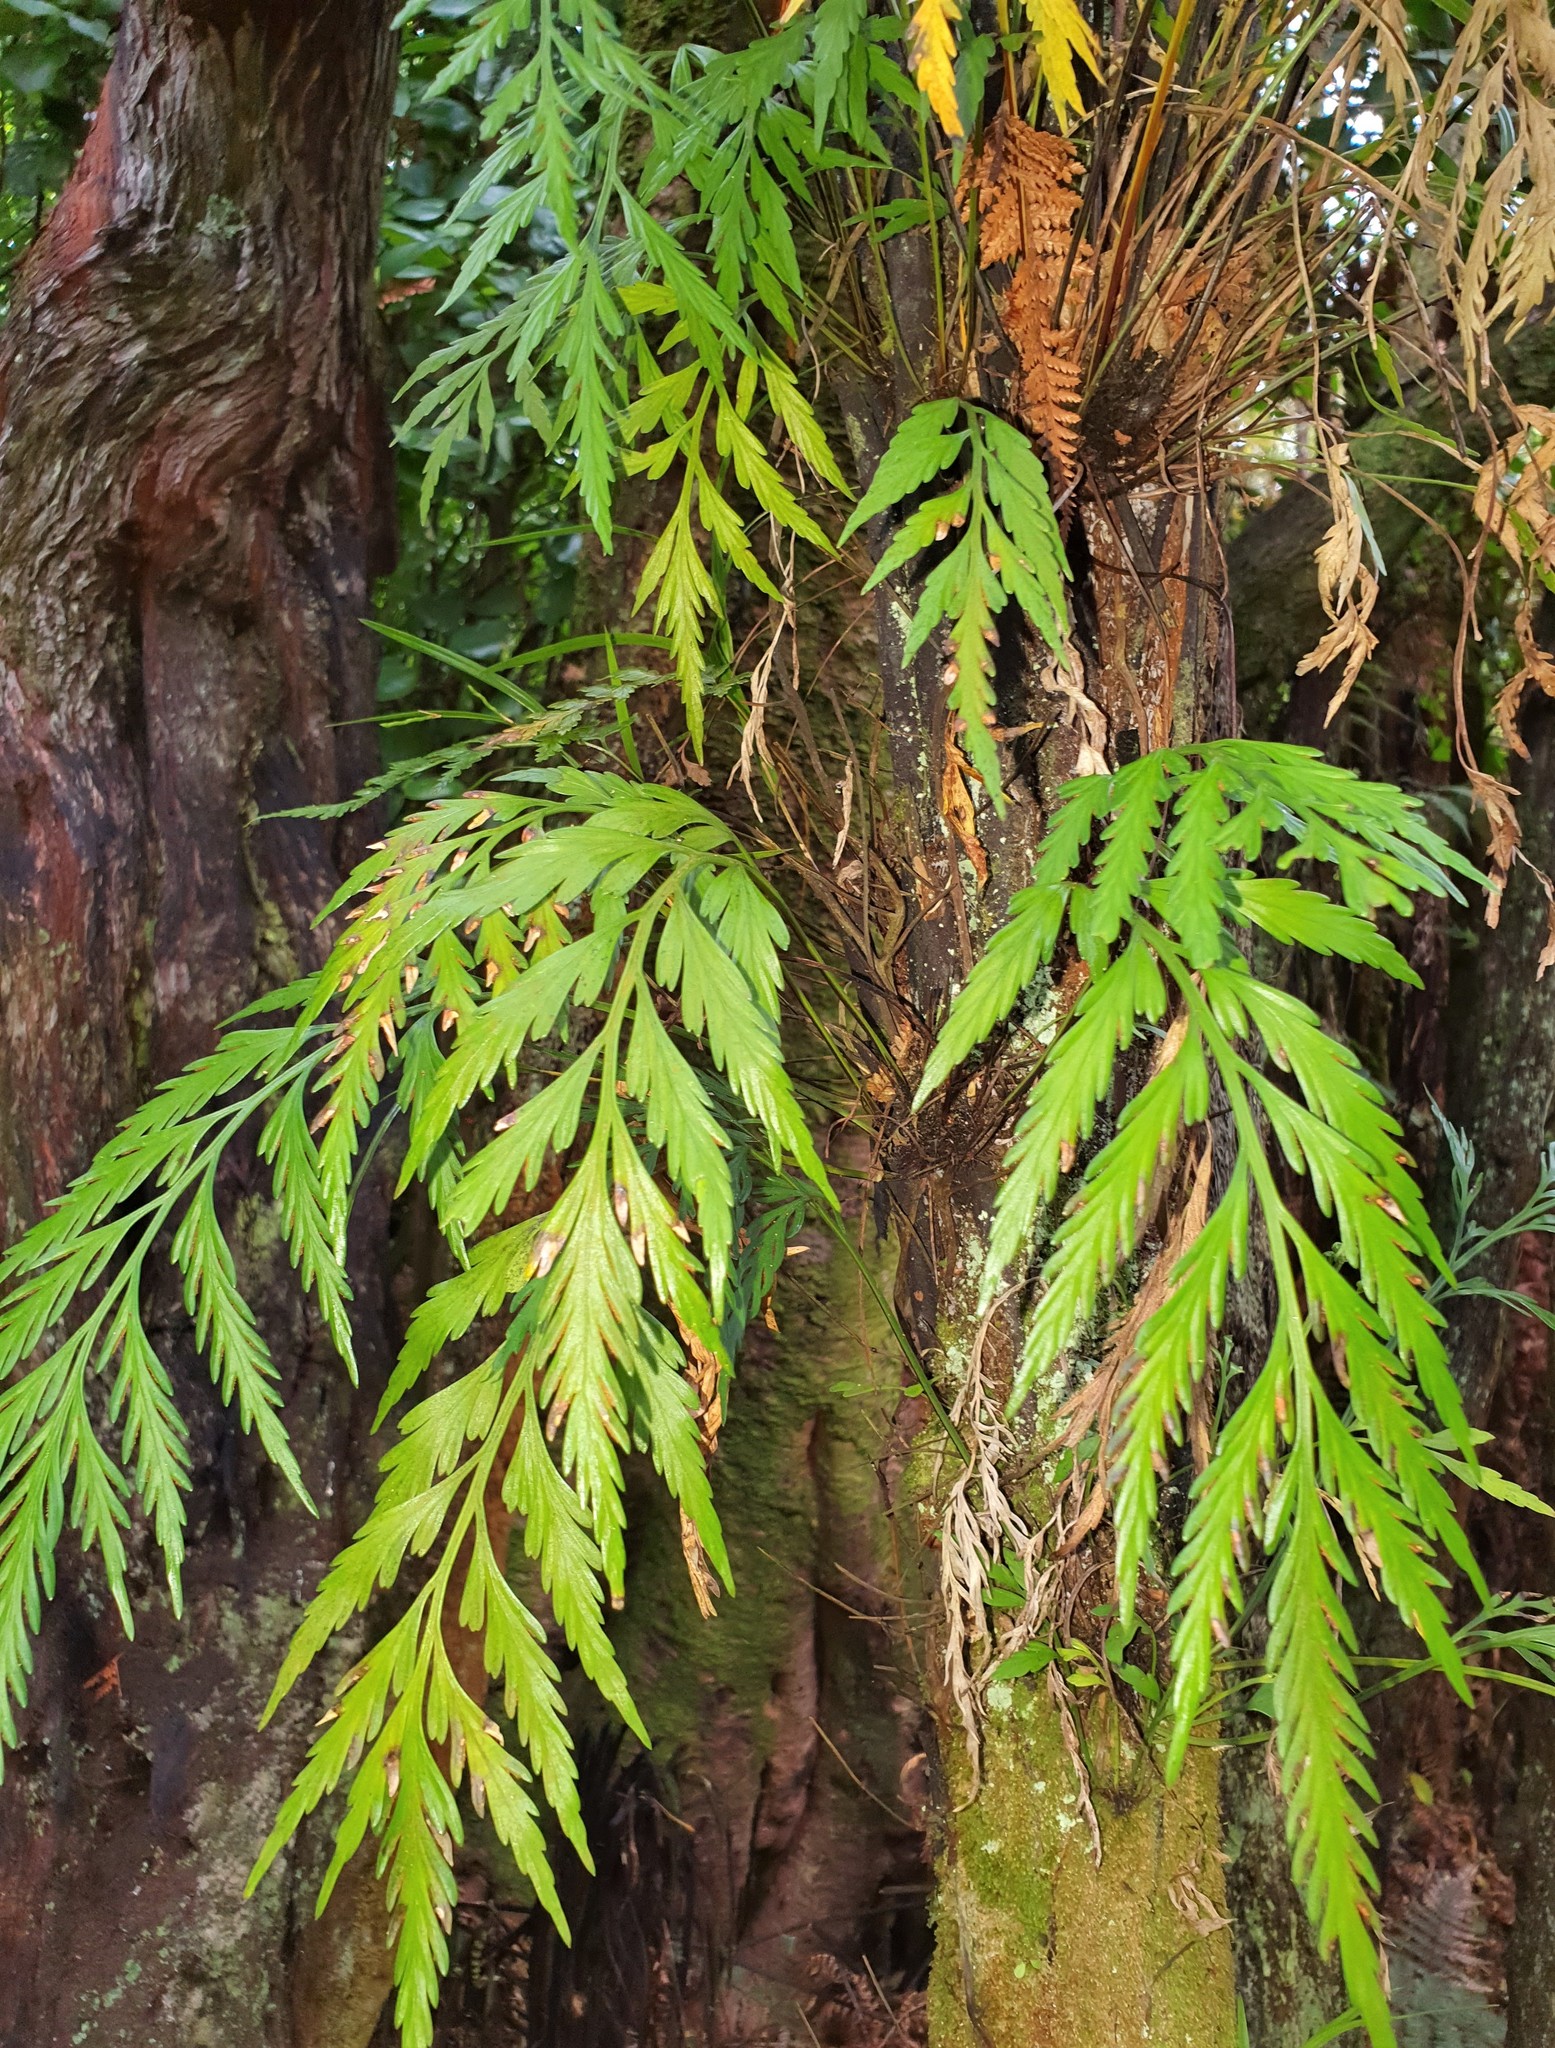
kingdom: Plantae
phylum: Tracheophyta
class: Polypodiopsida
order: Polypodiales
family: Aspleniaceae
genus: Asplenium
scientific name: Asplenium flaccidum
